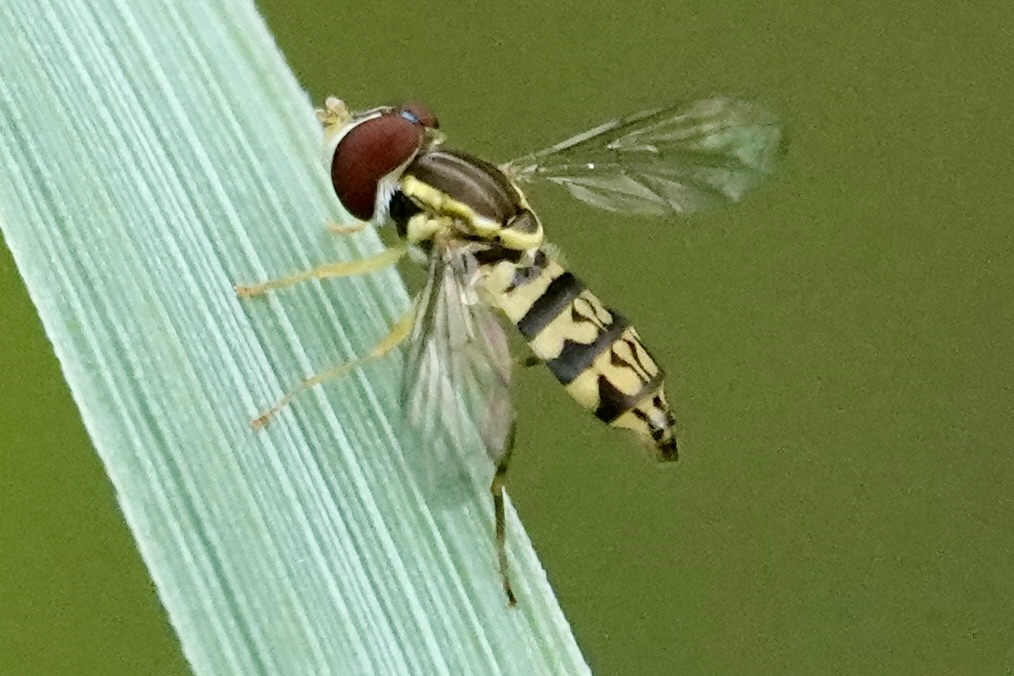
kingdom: Animalia
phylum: Arthropoda
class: Insecta
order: Diptera
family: Syrphidae
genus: Toxomerus
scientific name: Toxomerus geminatus
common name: Eastern calligrapher
